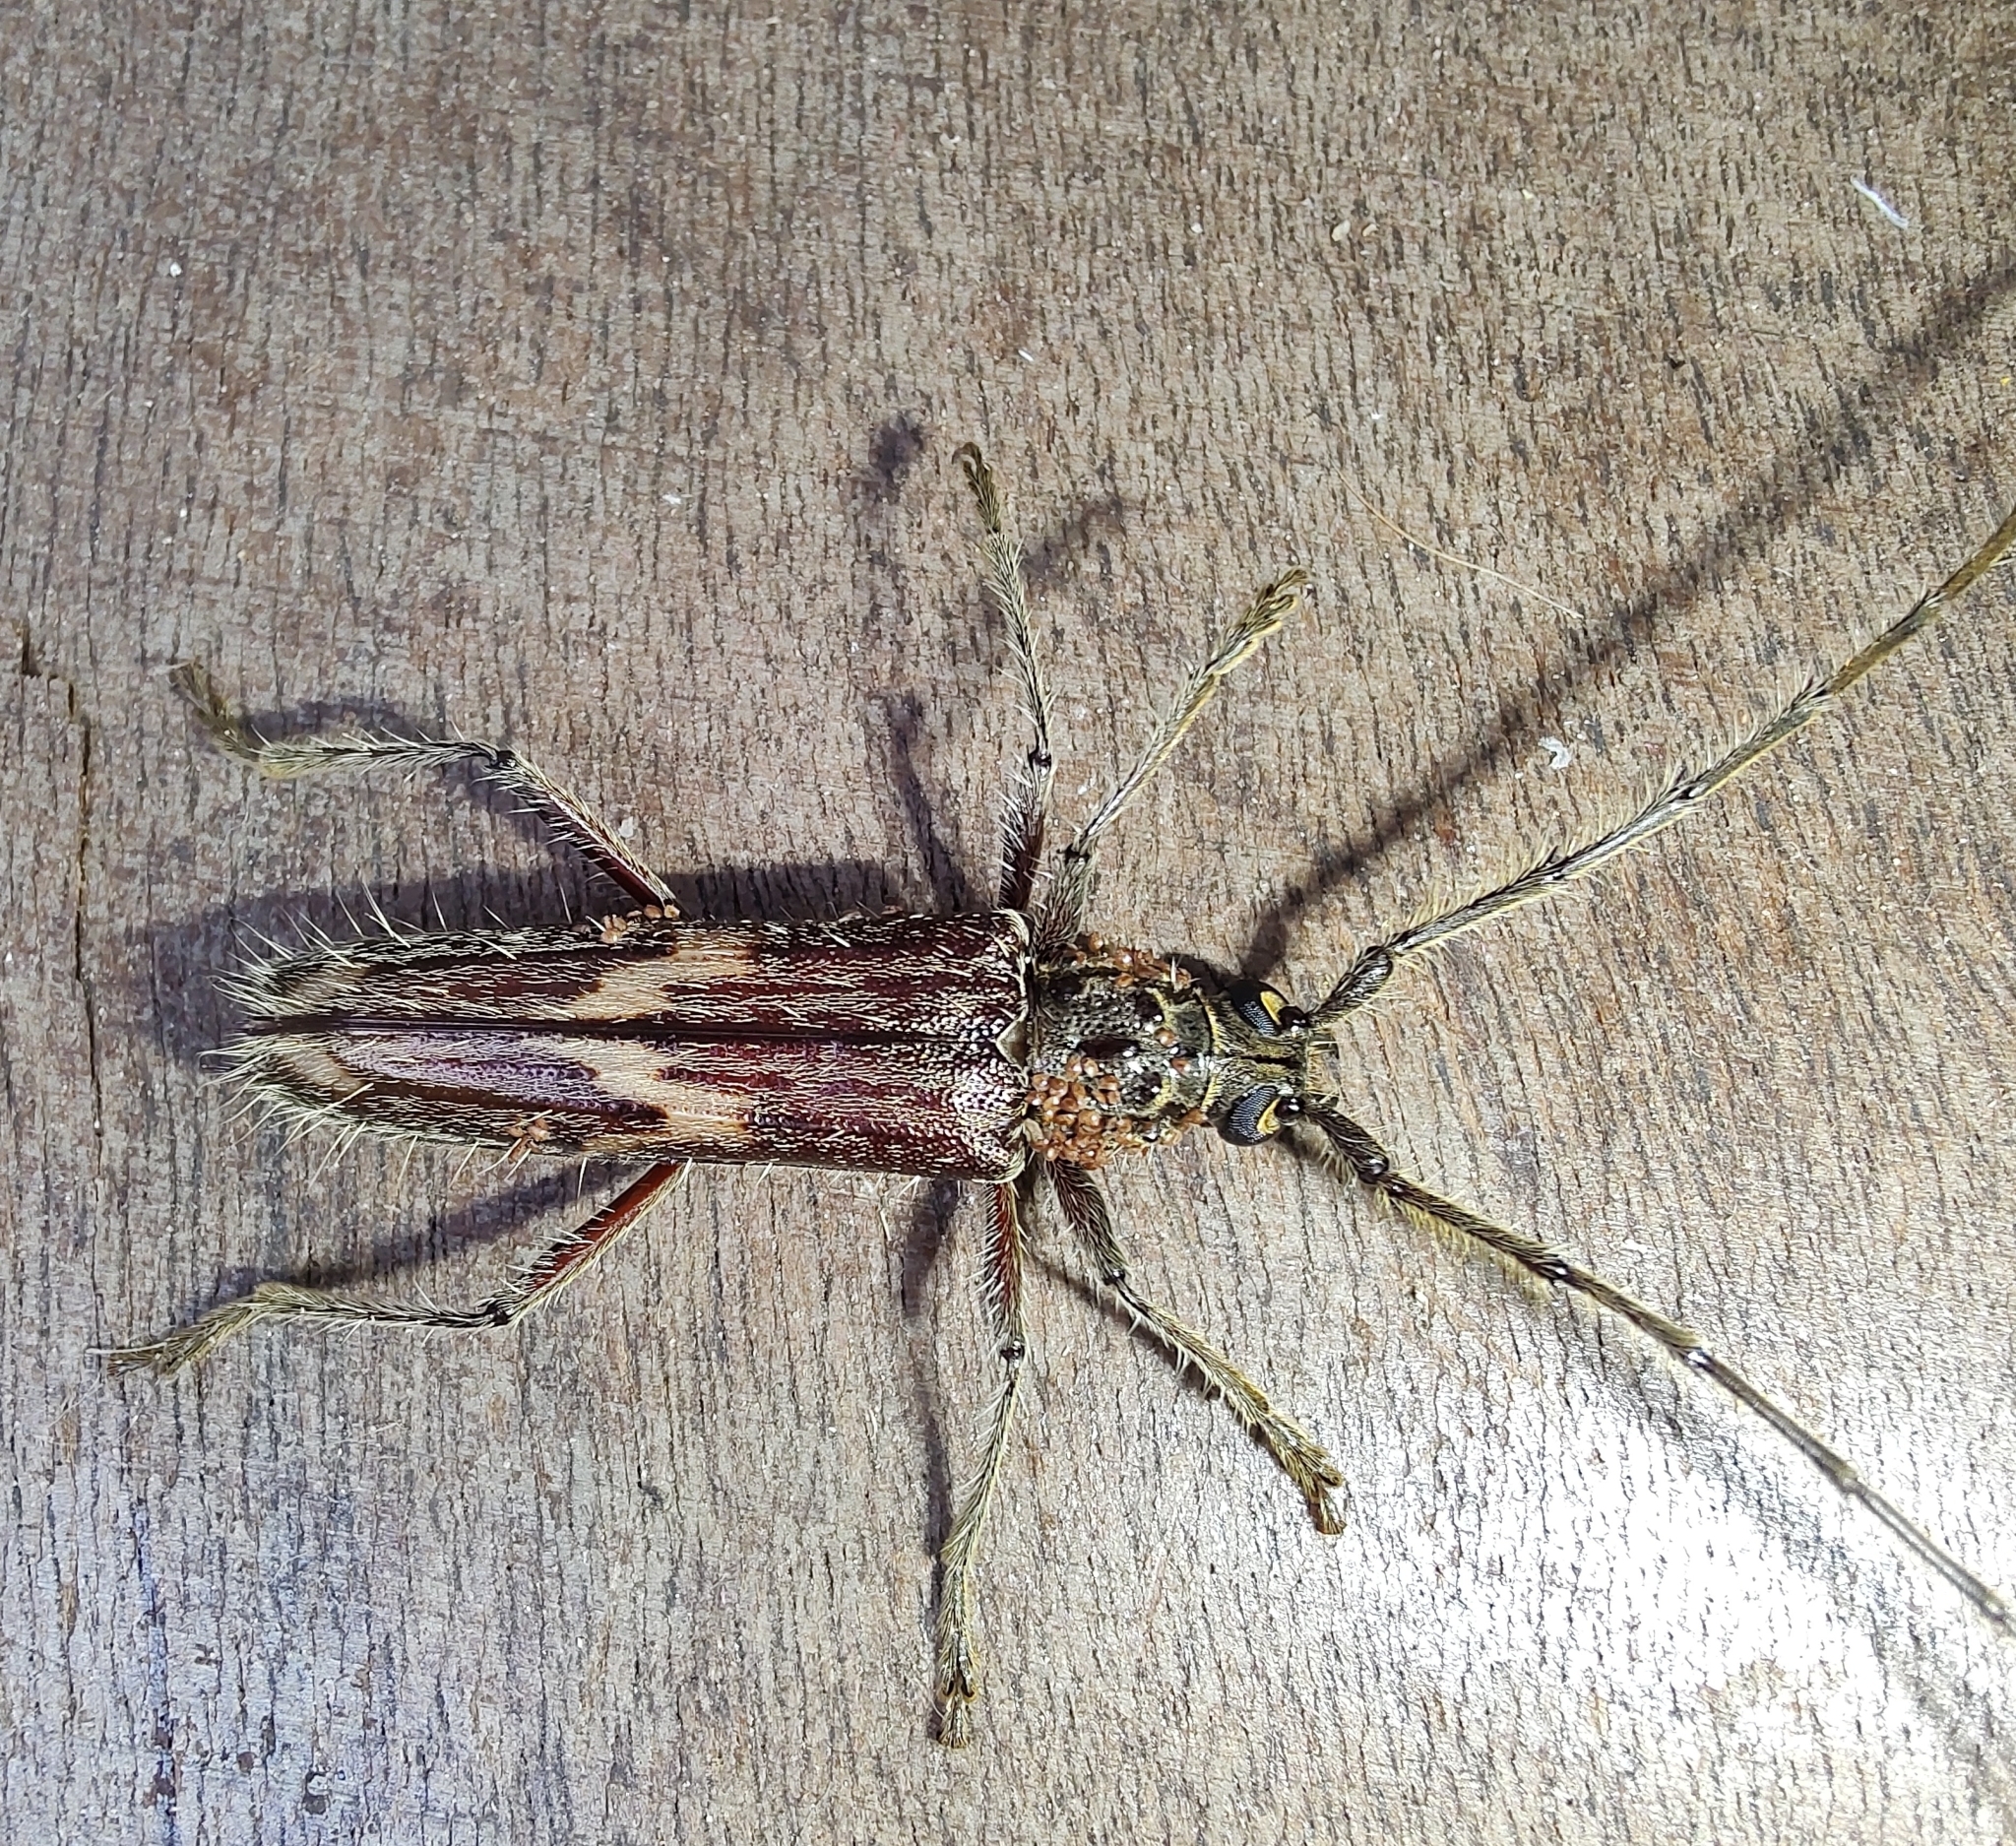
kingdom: Animalia
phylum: Arthropoda
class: Insecta
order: Coleoptera
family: Cerambycidae
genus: Eurysthea
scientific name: Eurysthea lacordairei
